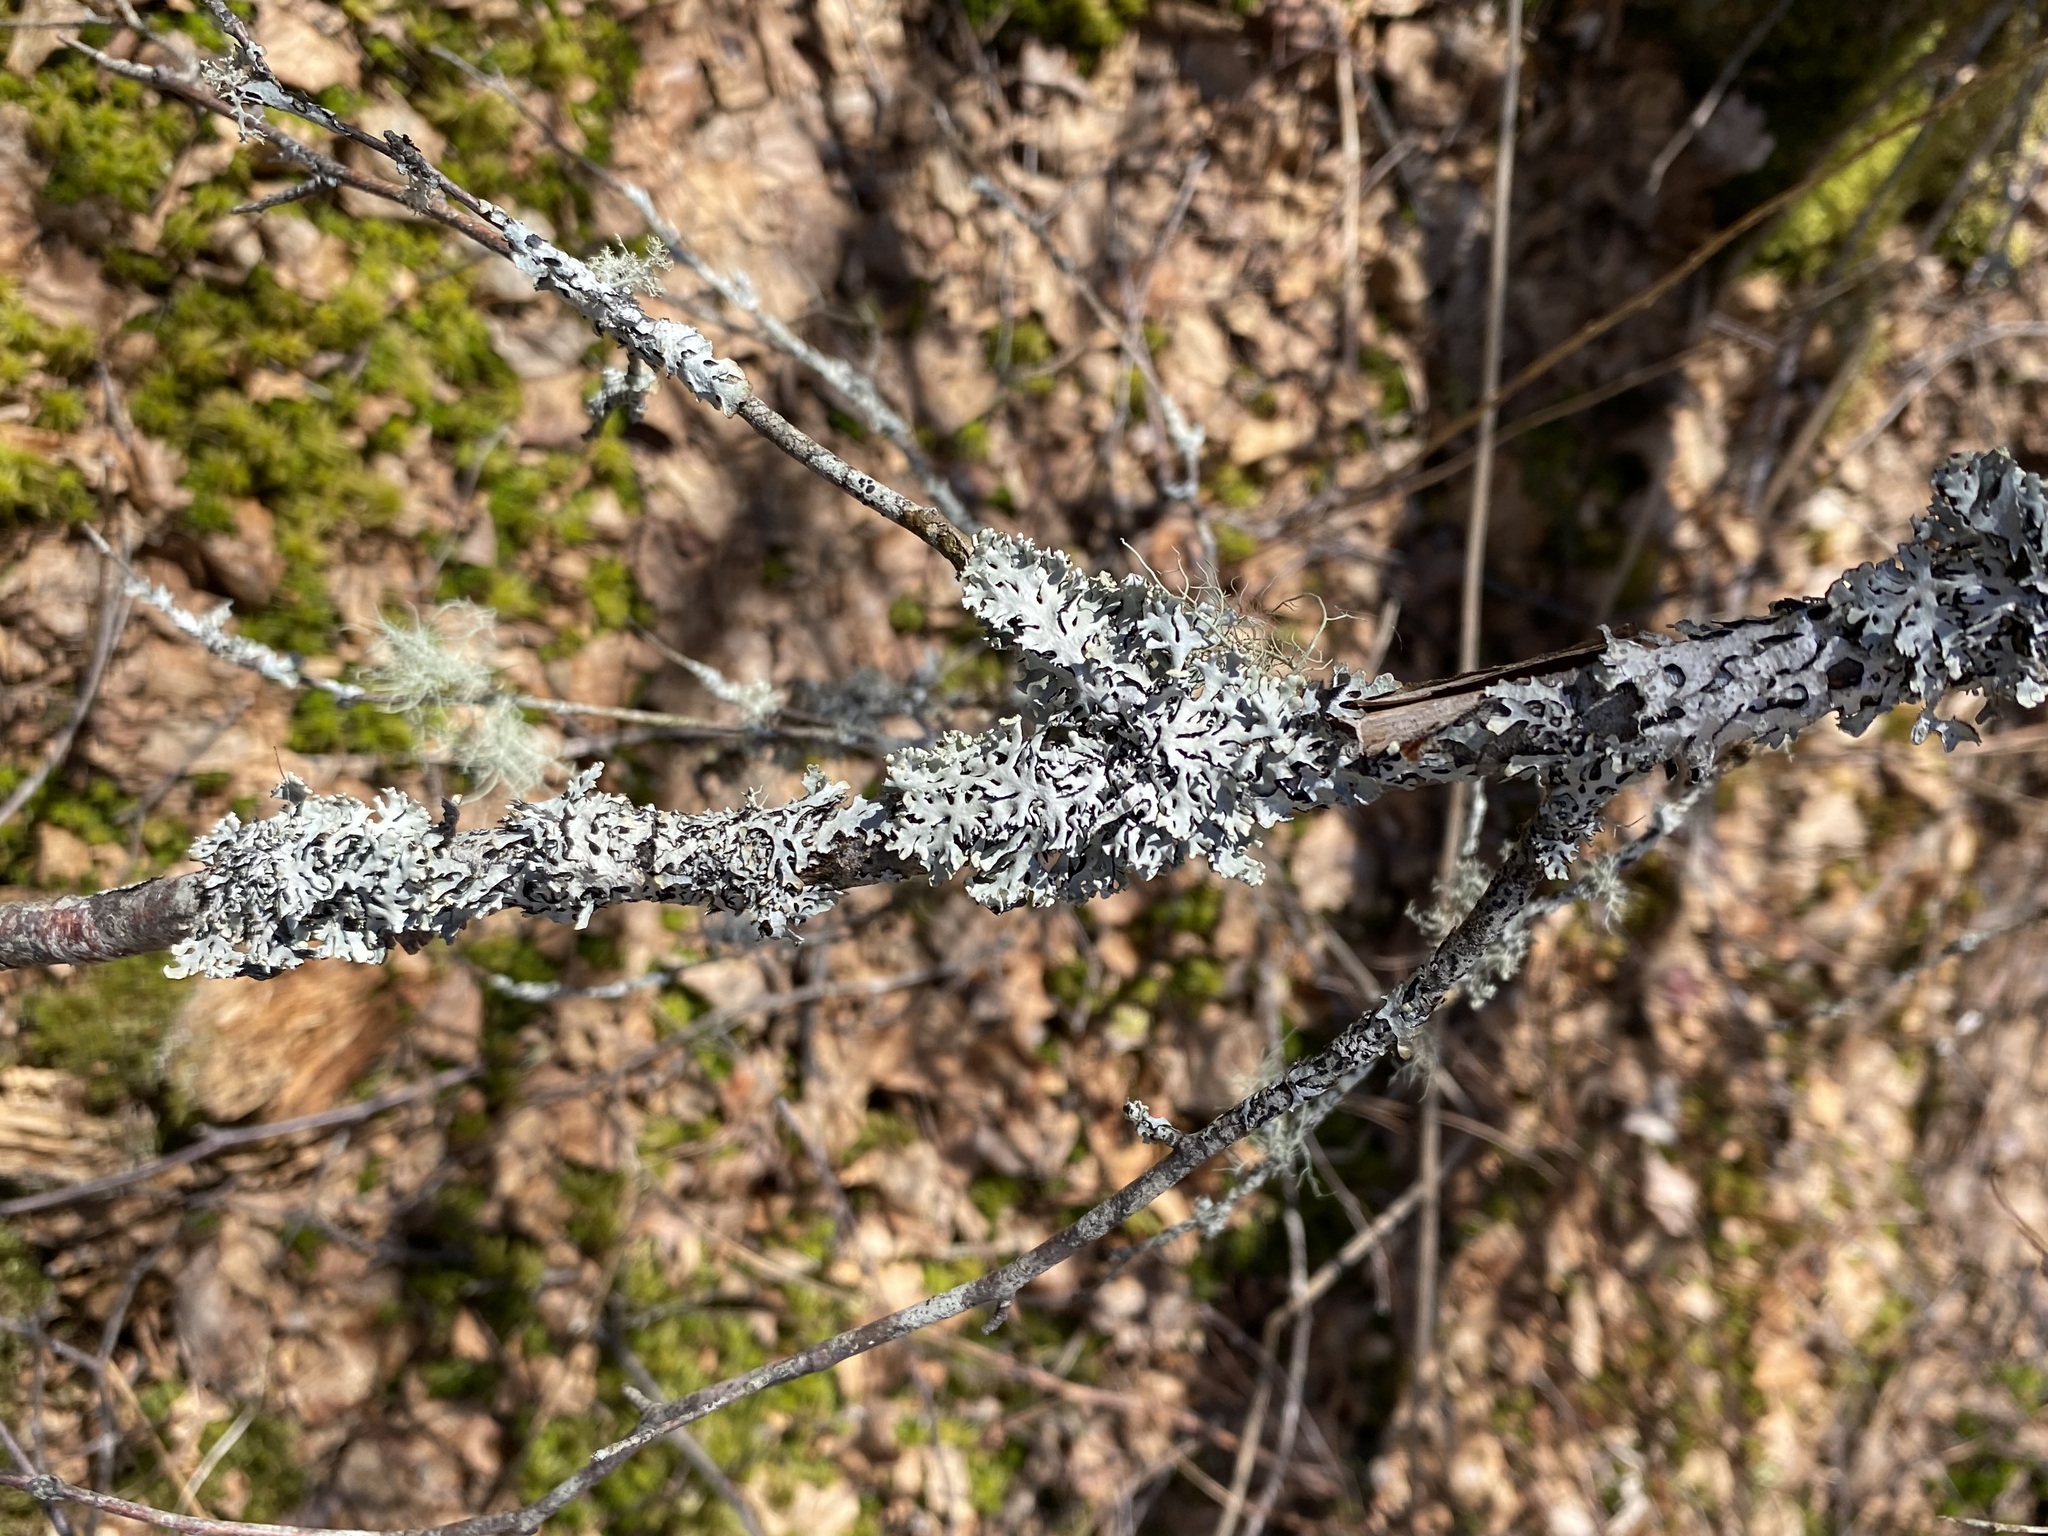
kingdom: Fungi
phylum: Ascomycota
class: Lecanoromycetes
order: Lecanorales
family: Parmeliaceae
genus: Hypogymnia
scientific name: Hypogymnia physodes
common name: Dark crottle
